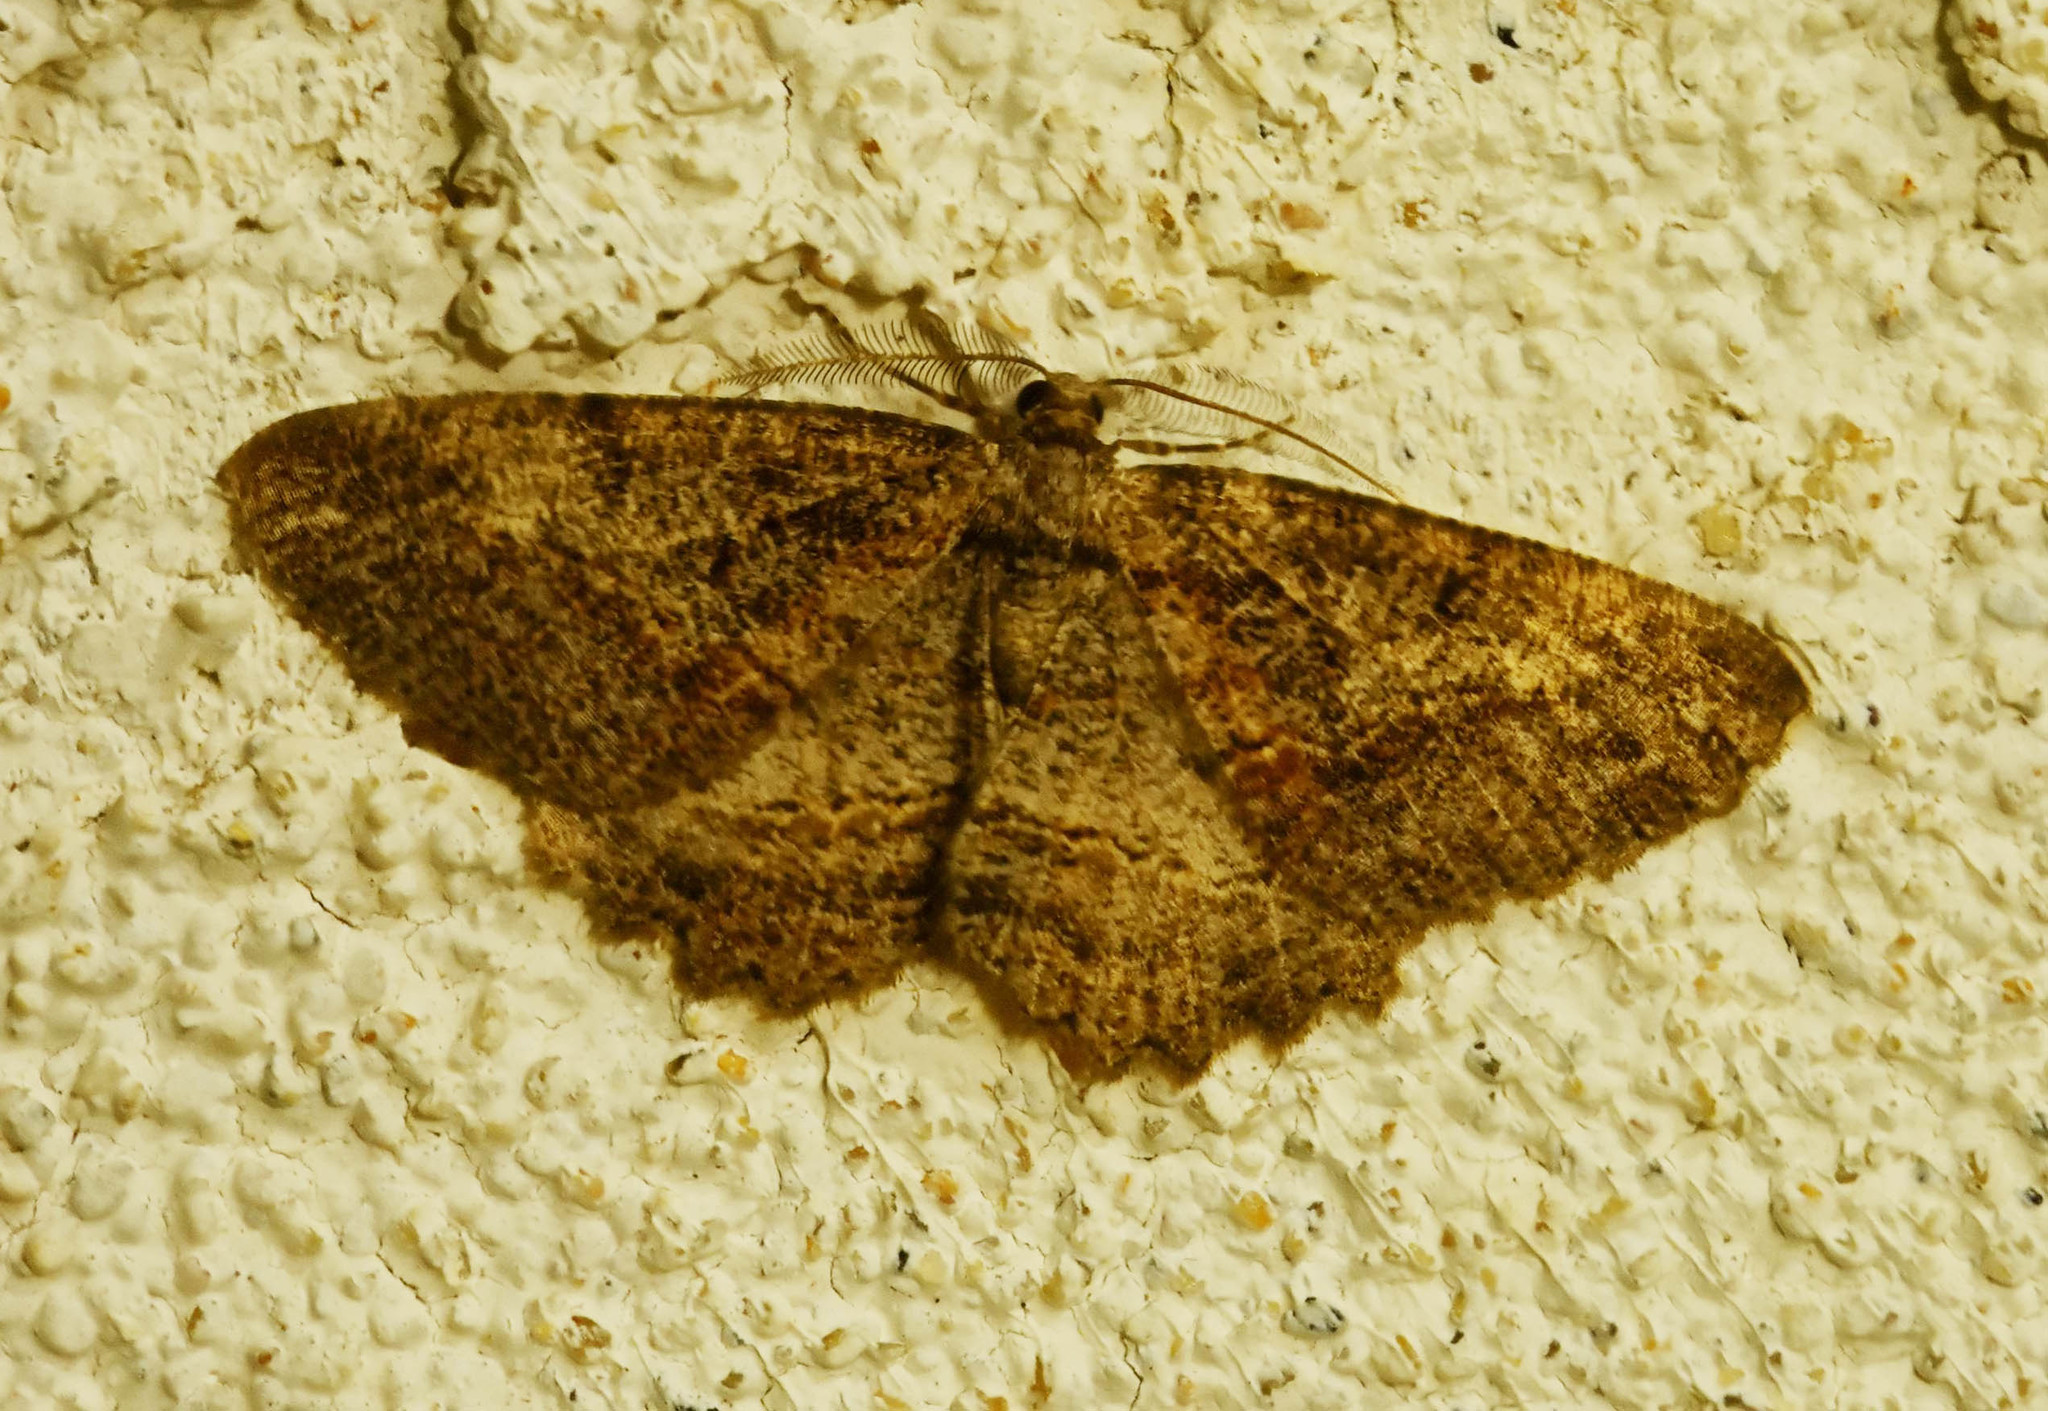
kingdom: Animalia
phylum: Arthropoda
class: Insecta
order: Lepidoptera
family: Geometridae
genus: Neoalcis
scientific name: Neoalcis californiaria
